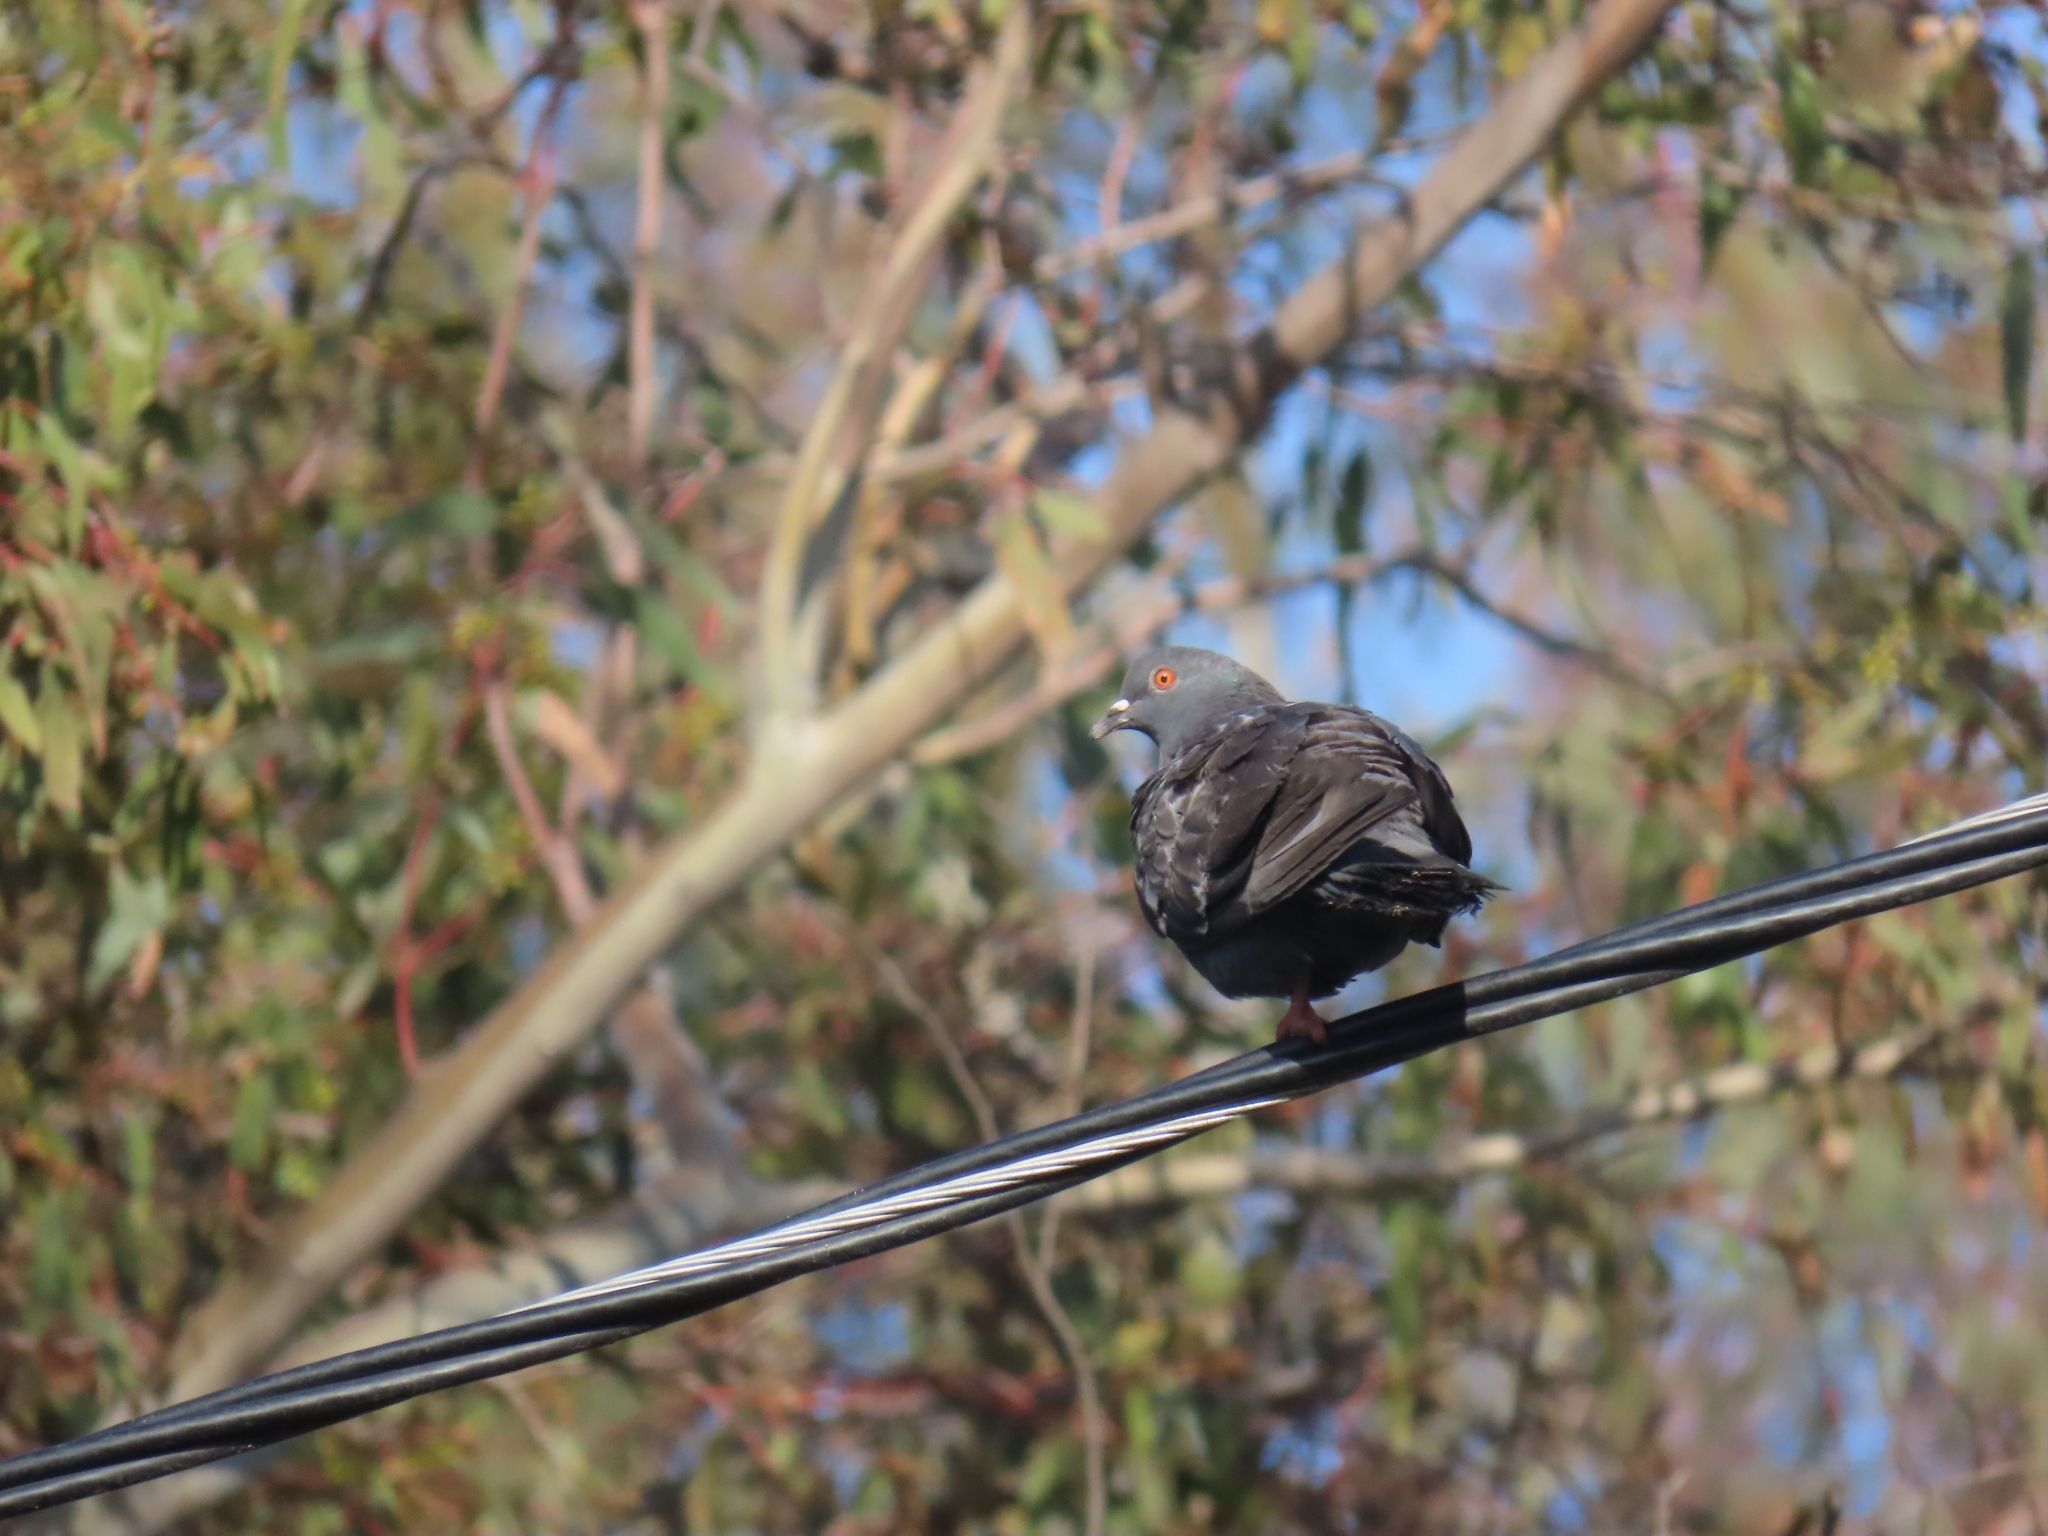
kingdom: Animalia
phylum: Chordata
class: Aves
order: Columbiformes
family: Columbidae
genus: Columba
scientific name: Columba livia
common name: Rock pigeon
